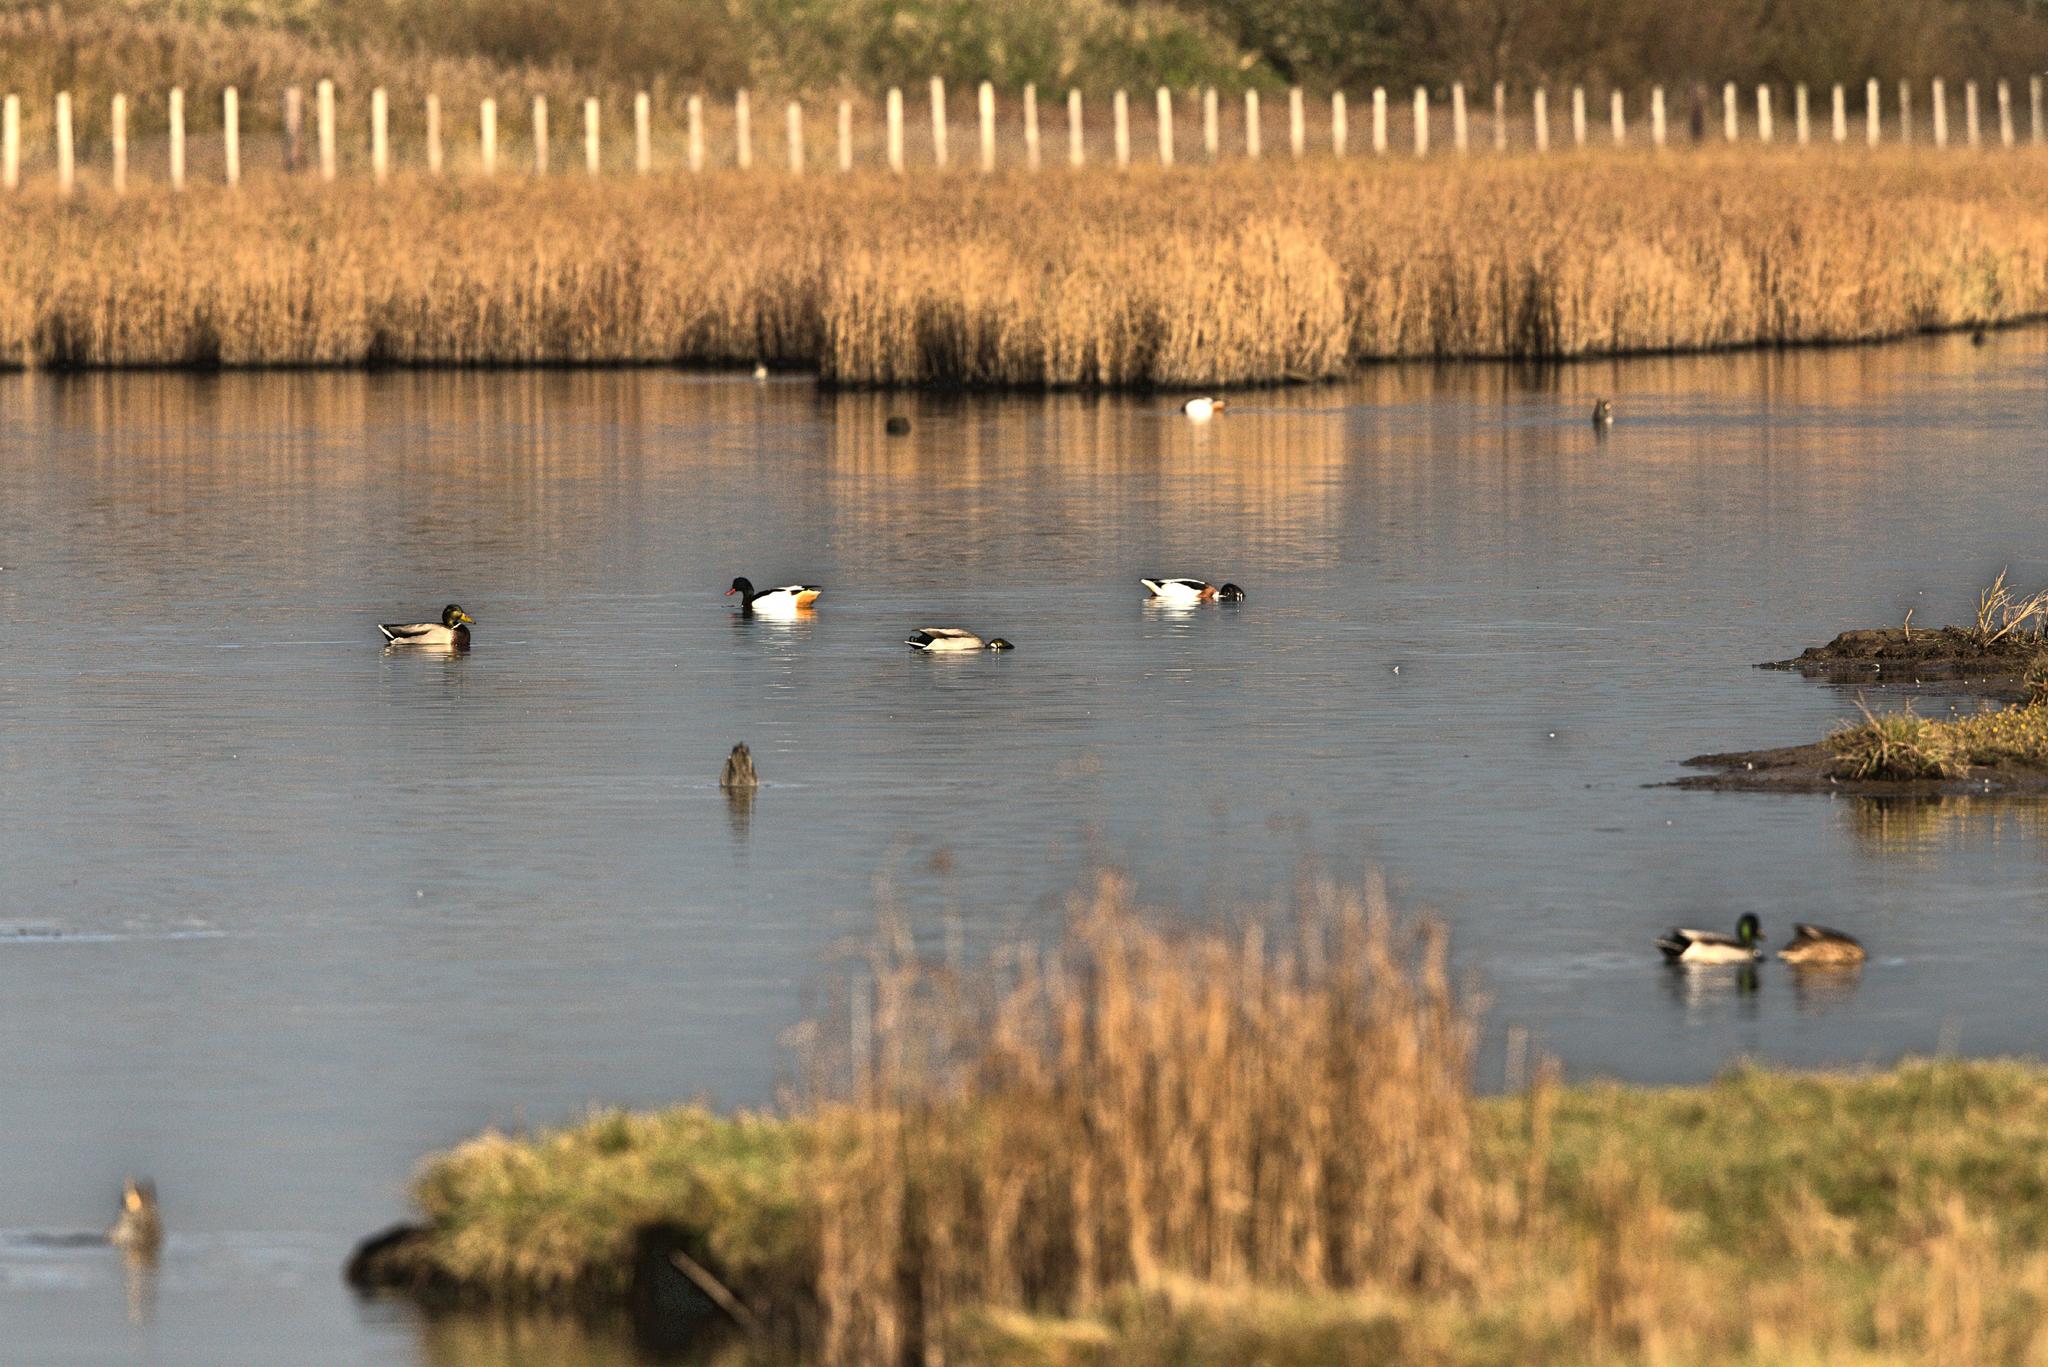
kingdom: Animalia
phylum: Chordata
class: Aves
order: Anseriformes
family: Anatidae
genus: Tadorna
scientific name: Tadorna tadorna
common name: Common shelduck
